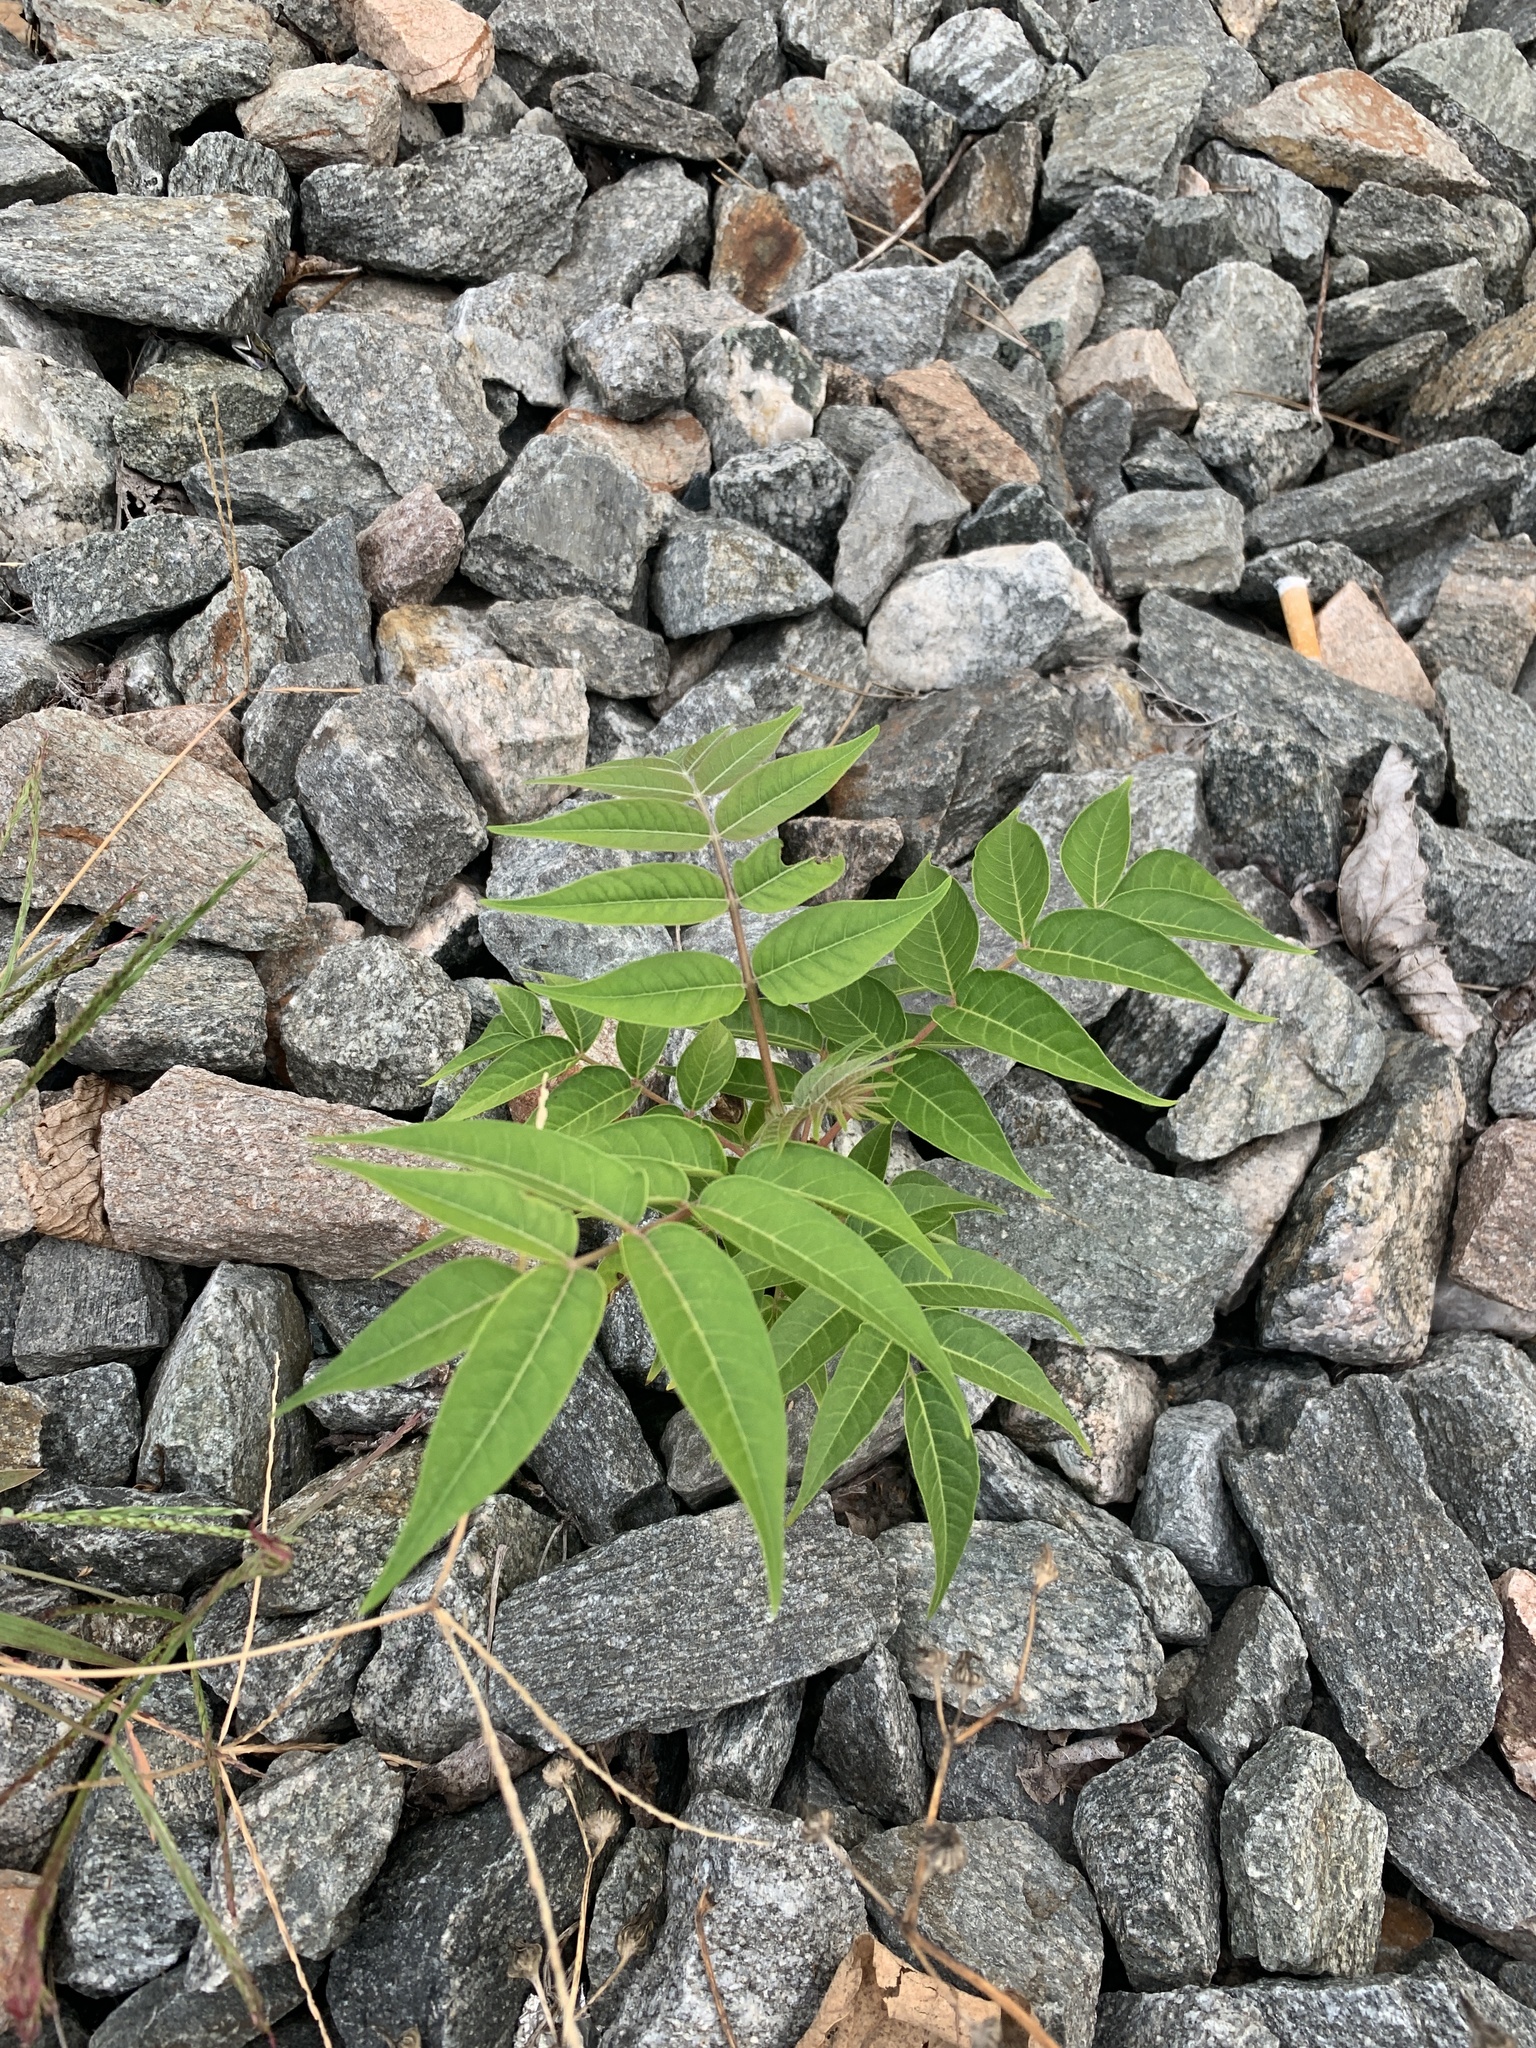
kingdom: Plantae
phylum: Tracheophyta
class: Magnoliopsida
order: Sapindales
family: Simaroubaceae
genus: Ailanthus
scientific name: Ailanthus altissima
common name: Tree-of-heaven
